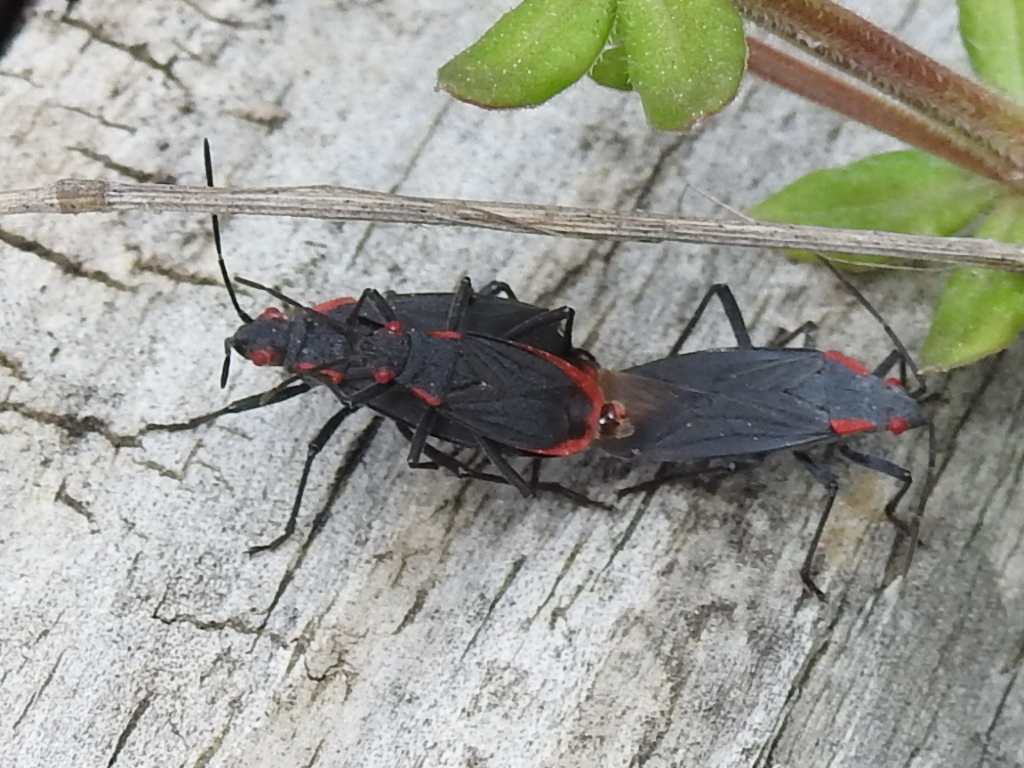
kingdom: Animalia
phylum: Arthropoda
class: Insecta
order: Hemiptera
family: Rhopalidae
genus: Jadera
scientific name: Jadera haematoloma
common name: Red-shouldered bug
